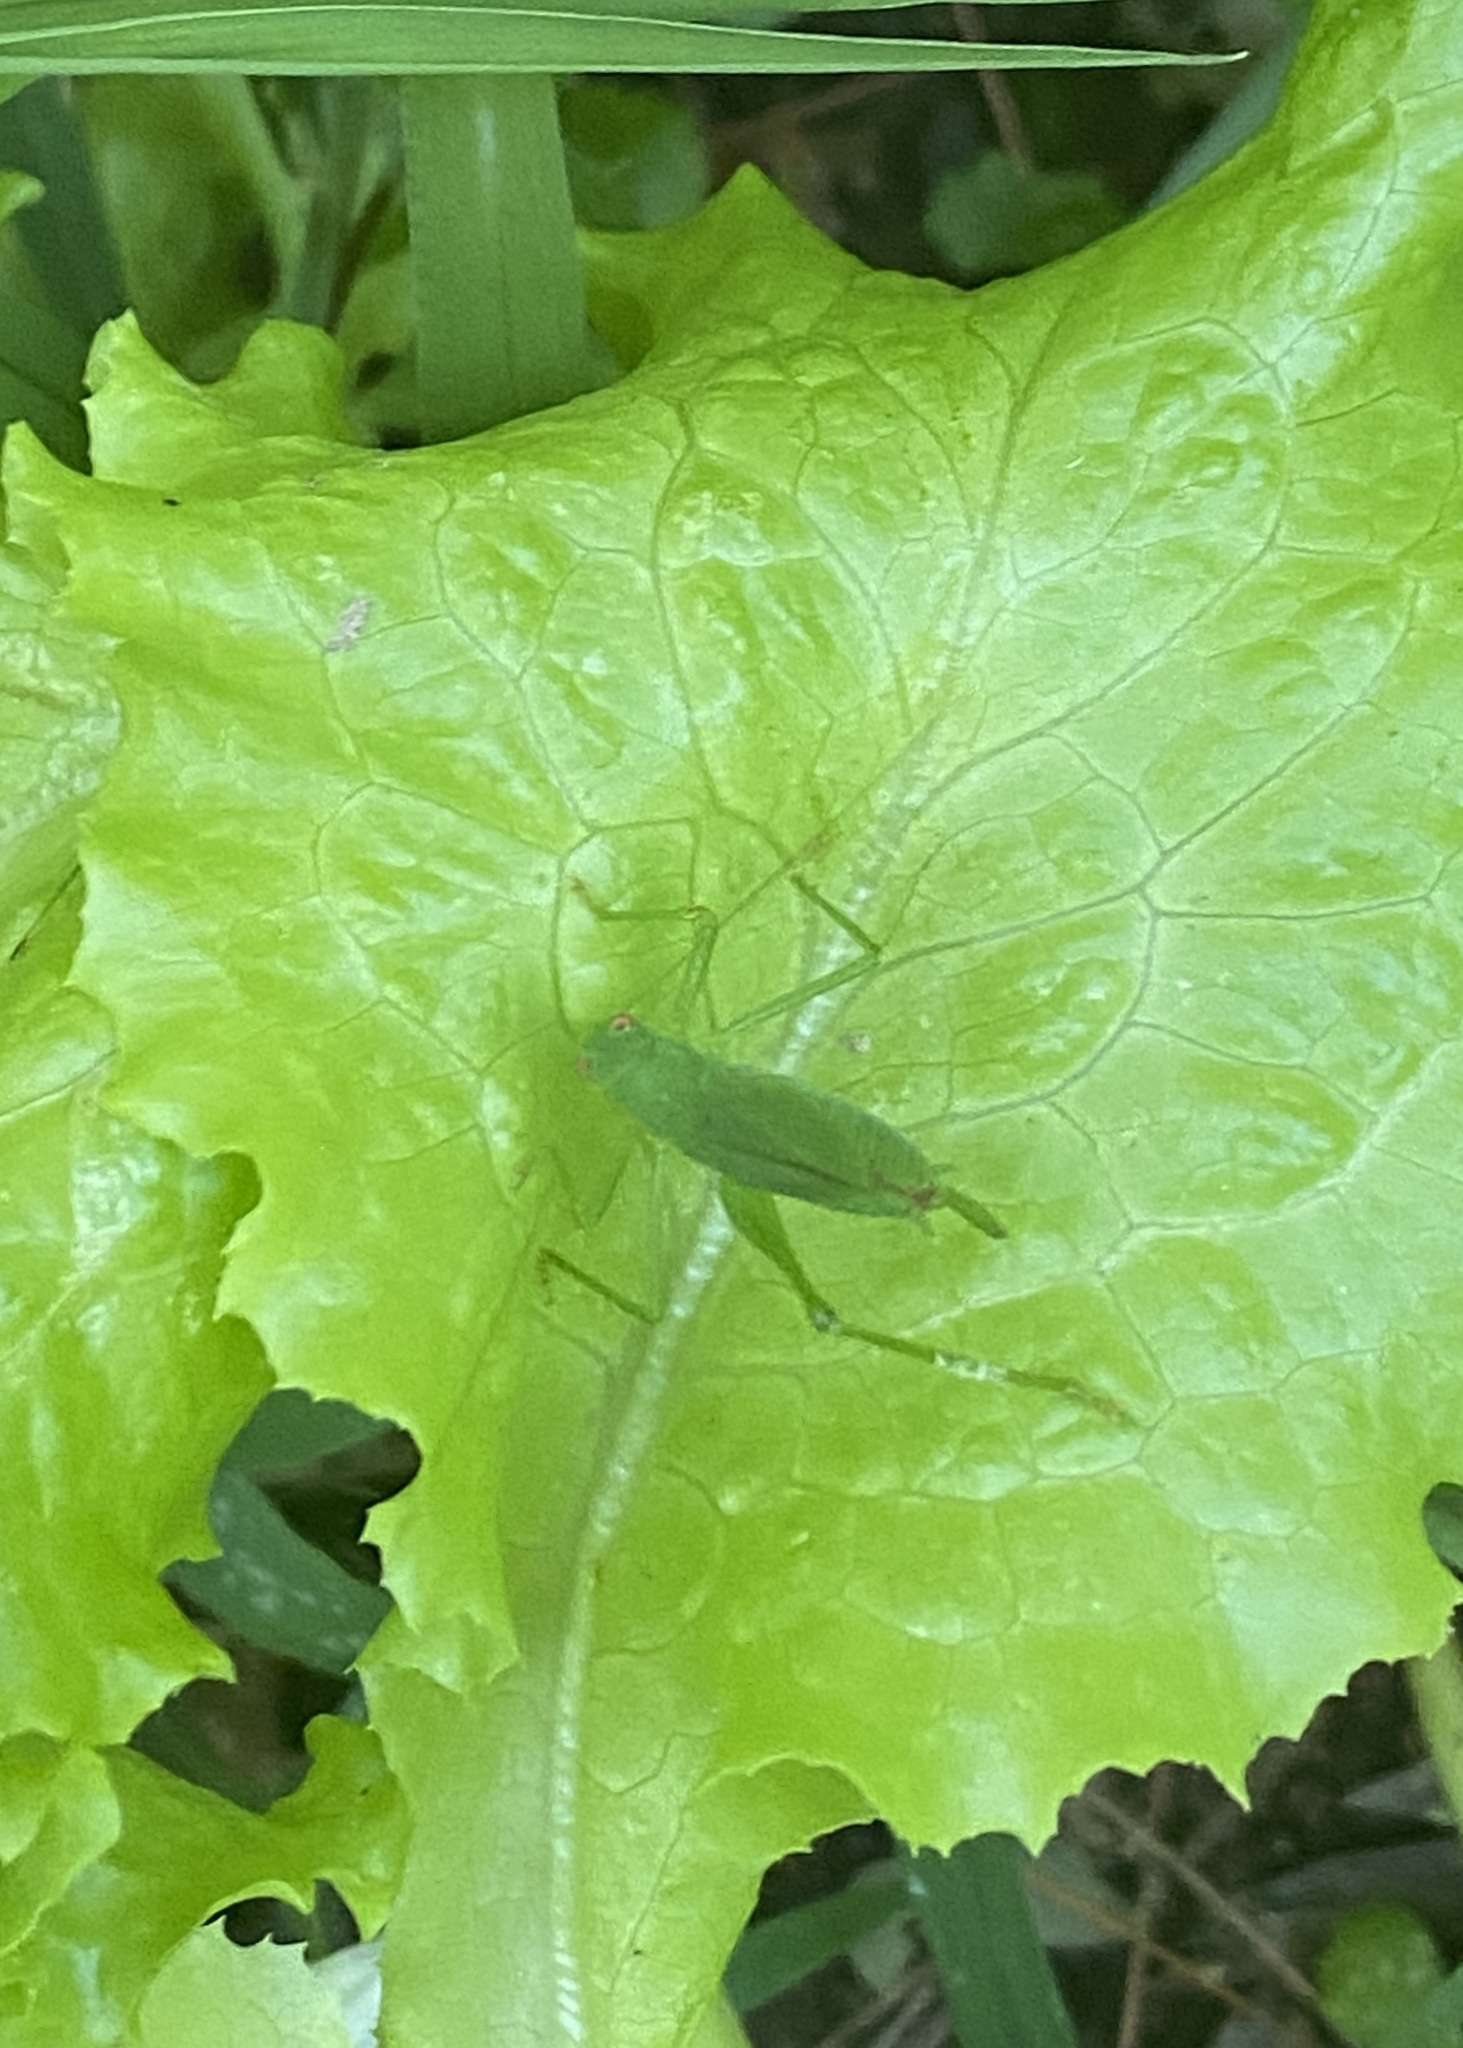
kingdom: Animalia
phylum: Arthropoda
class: Insecta
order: Orthoptera
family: Tettigoniidae
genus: Phaneroptera
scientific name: Phaneroptera nana
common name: Southern sickle bush-cricket
